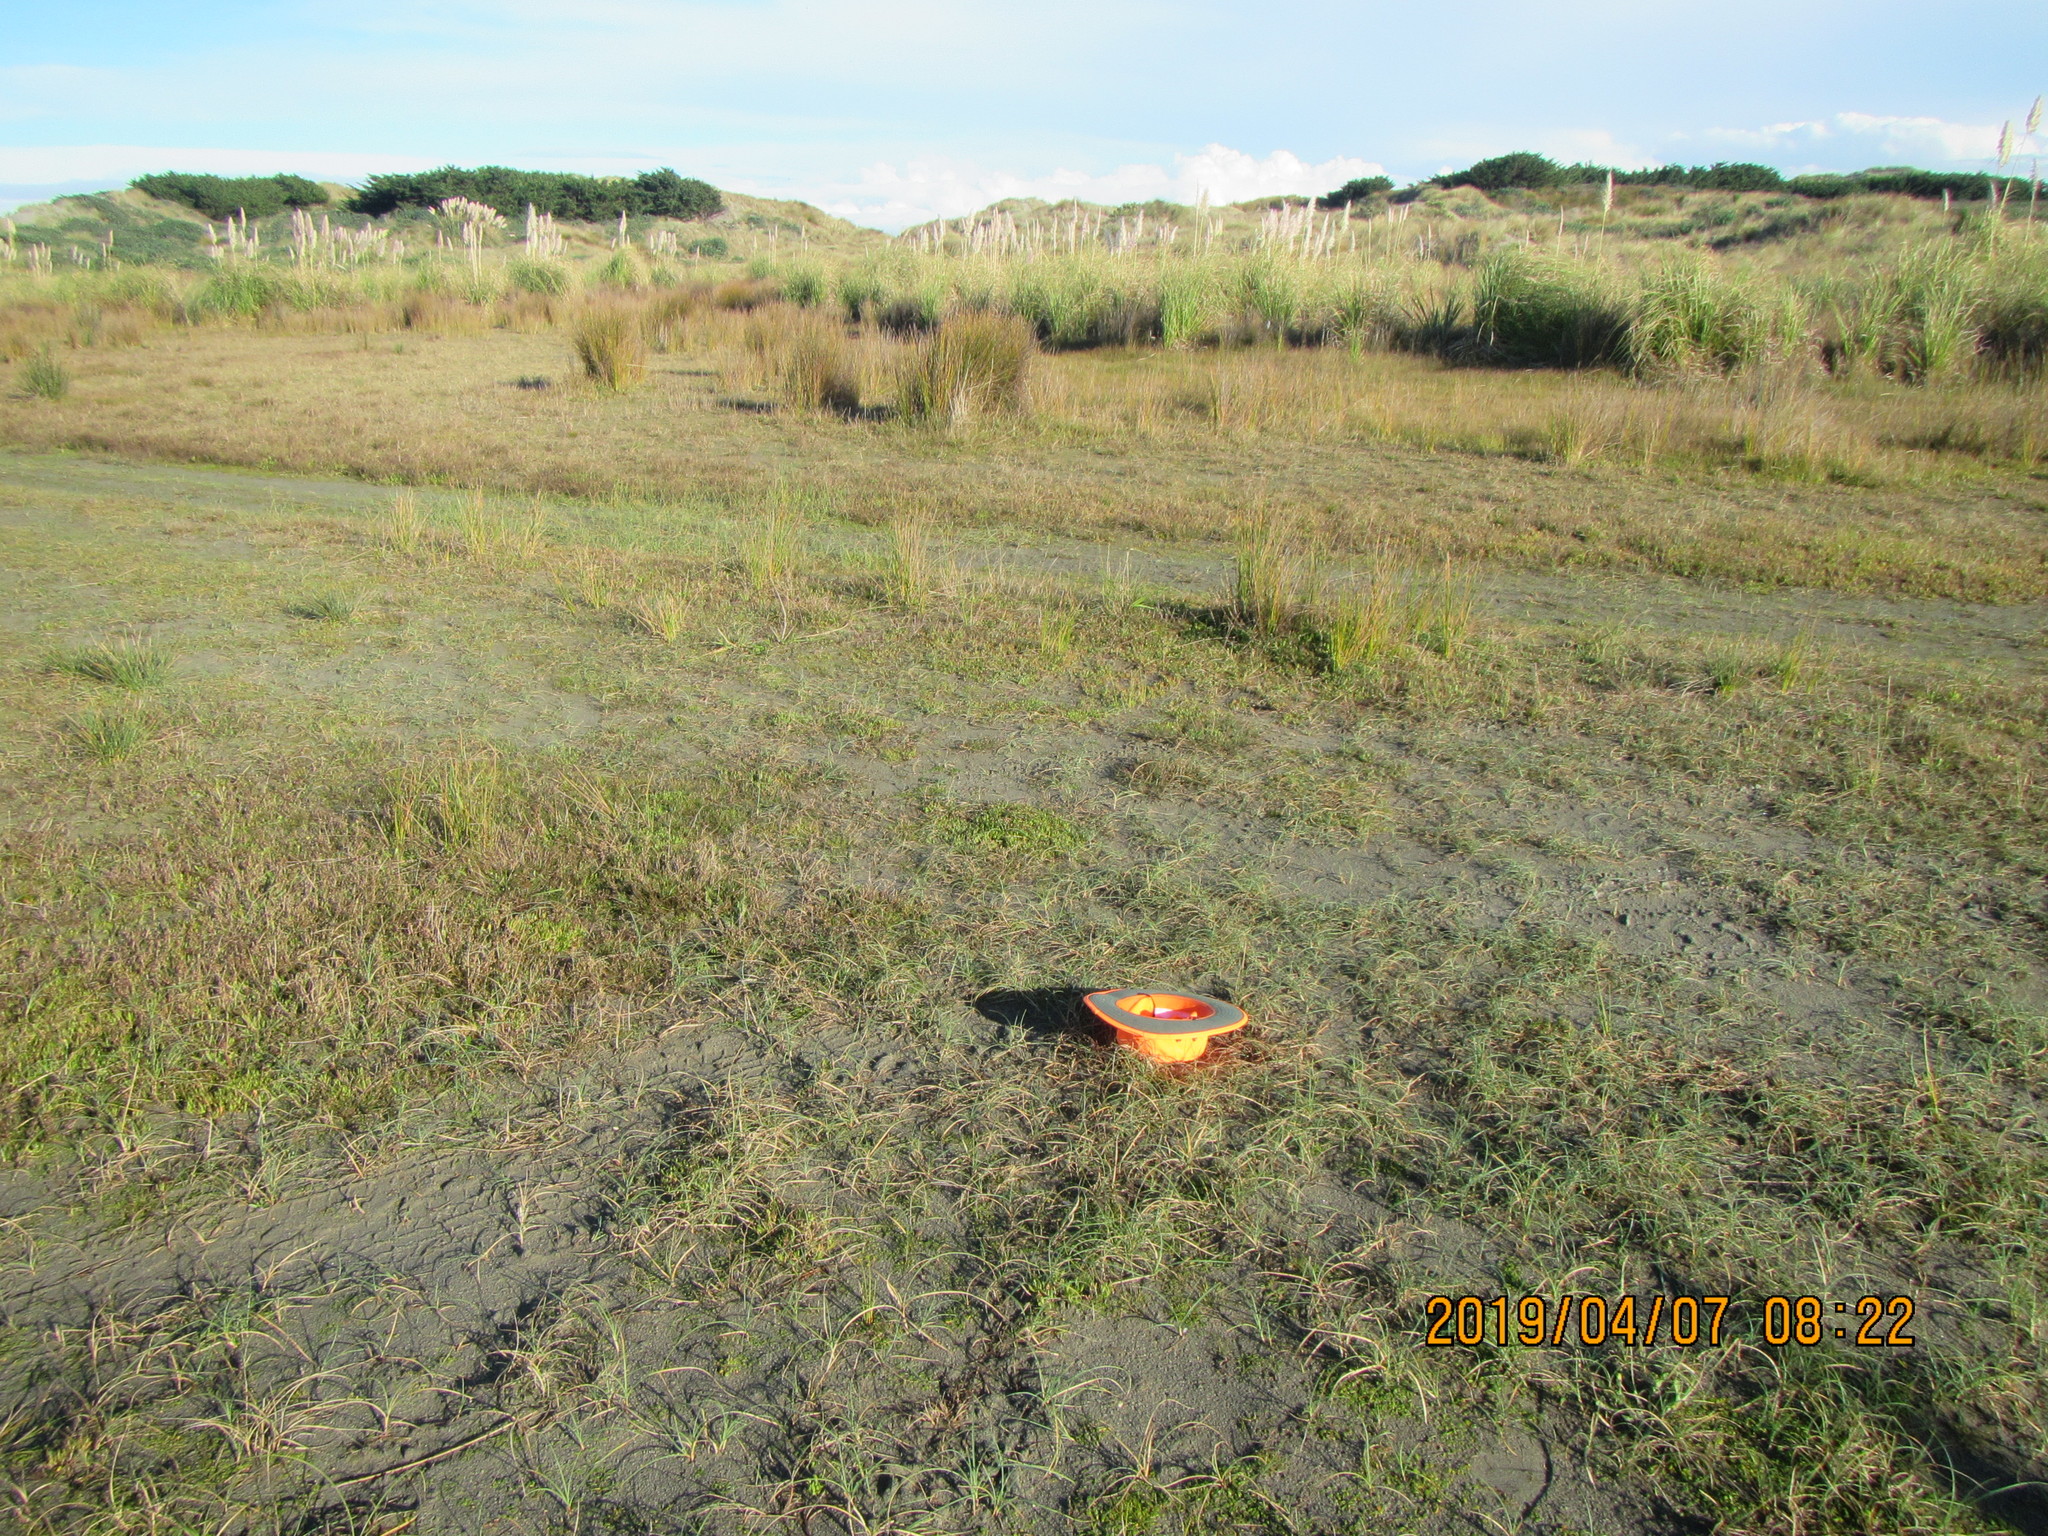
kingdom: Plantae
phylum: Tracheophyta
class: Magnoliopsida
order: Ranunculales
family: Ranunculaceae
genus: Ranunculus
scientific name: Ranunculus acaulis
